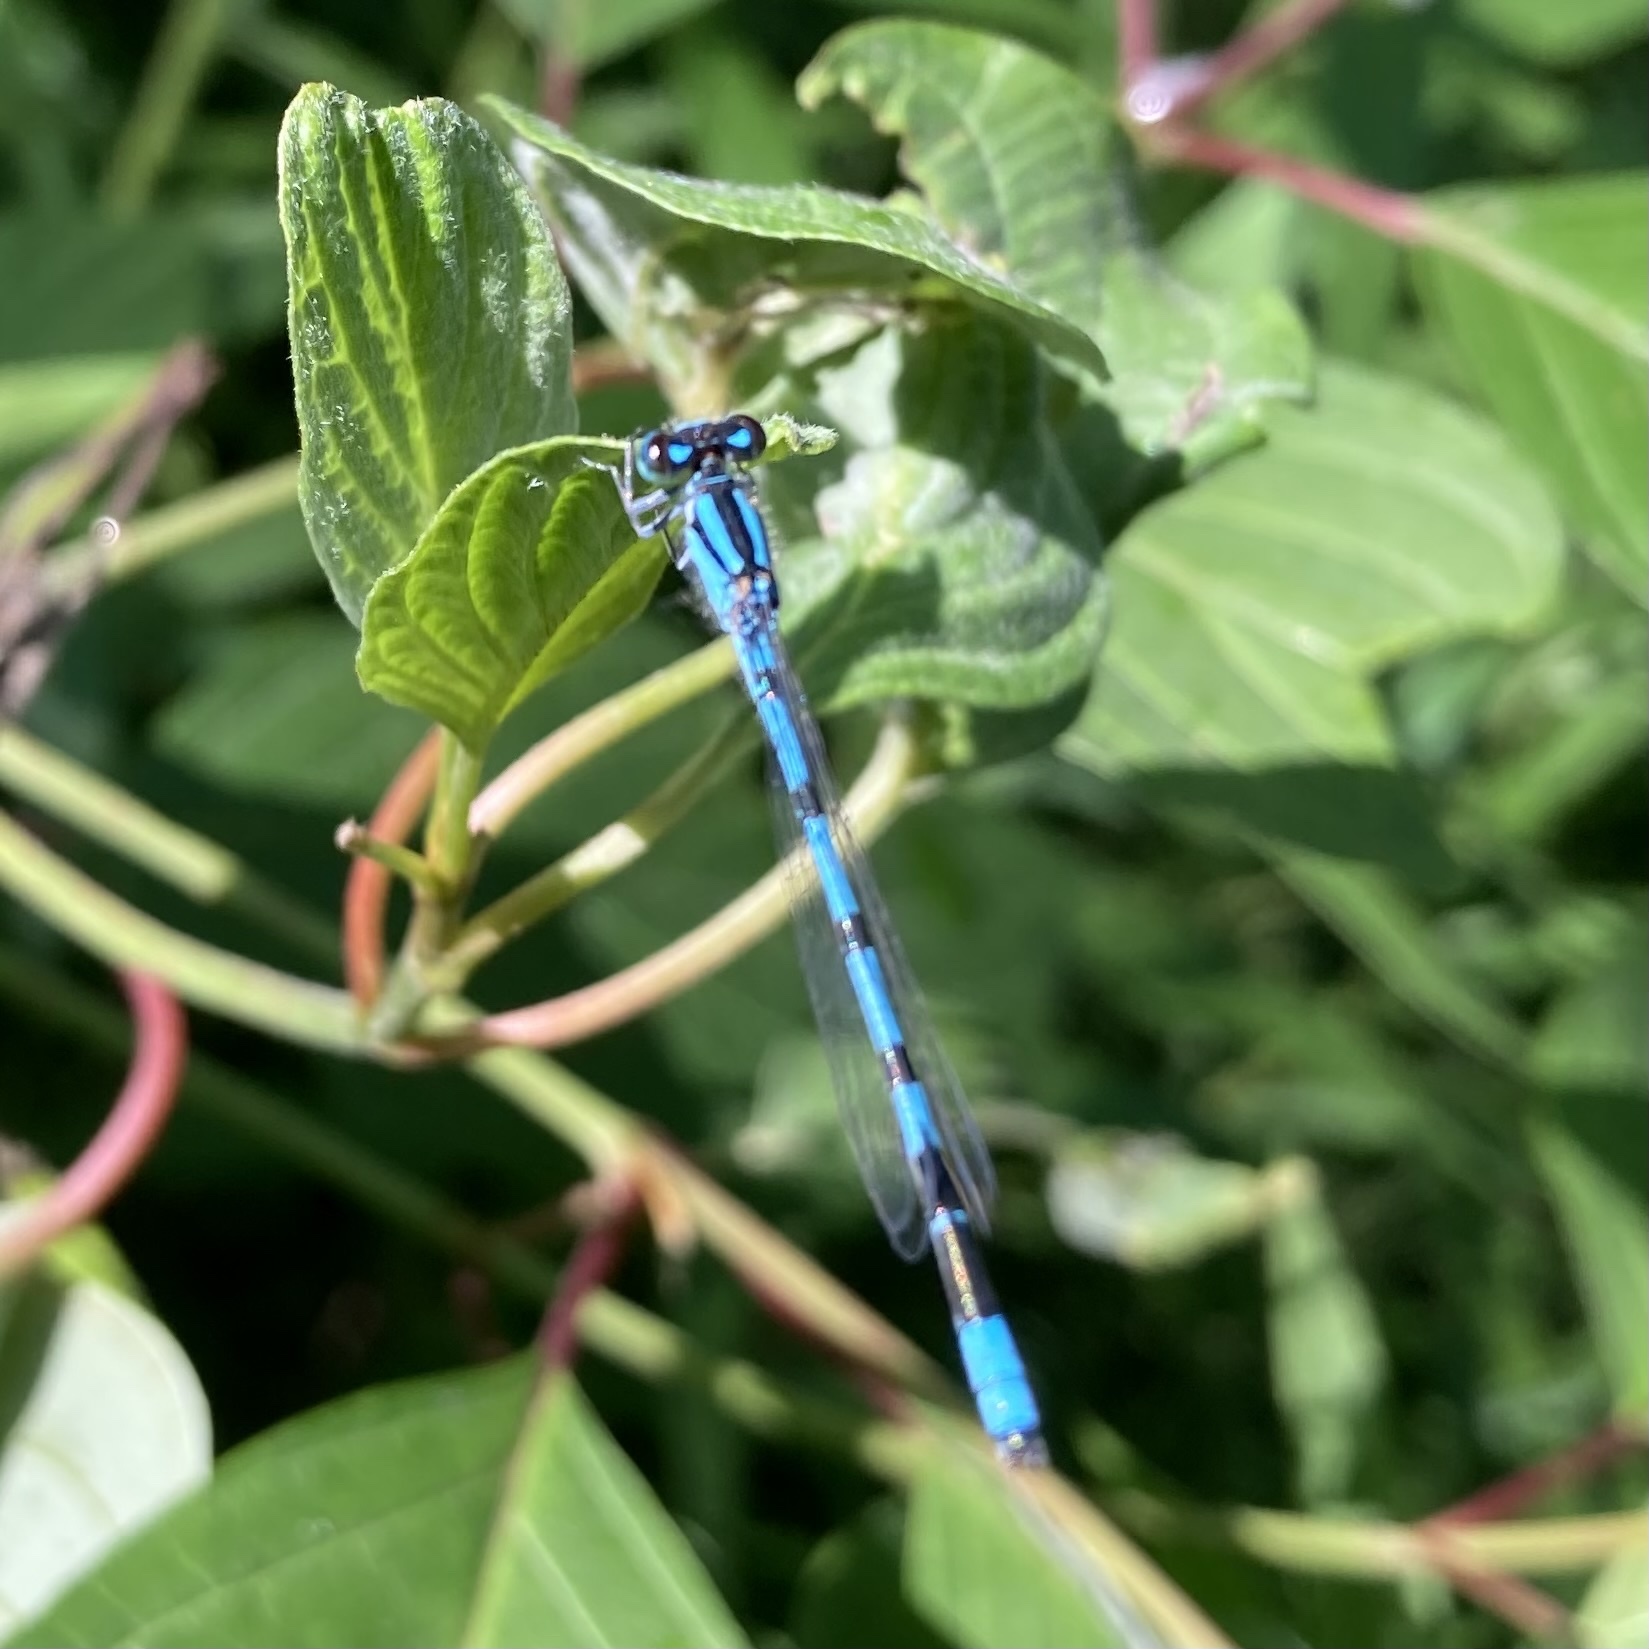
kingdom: Animalia
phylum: Arthropoda
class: Insecta
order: Odonata
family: Coenagrionidae
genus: Enallagma
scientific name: Enallagma
